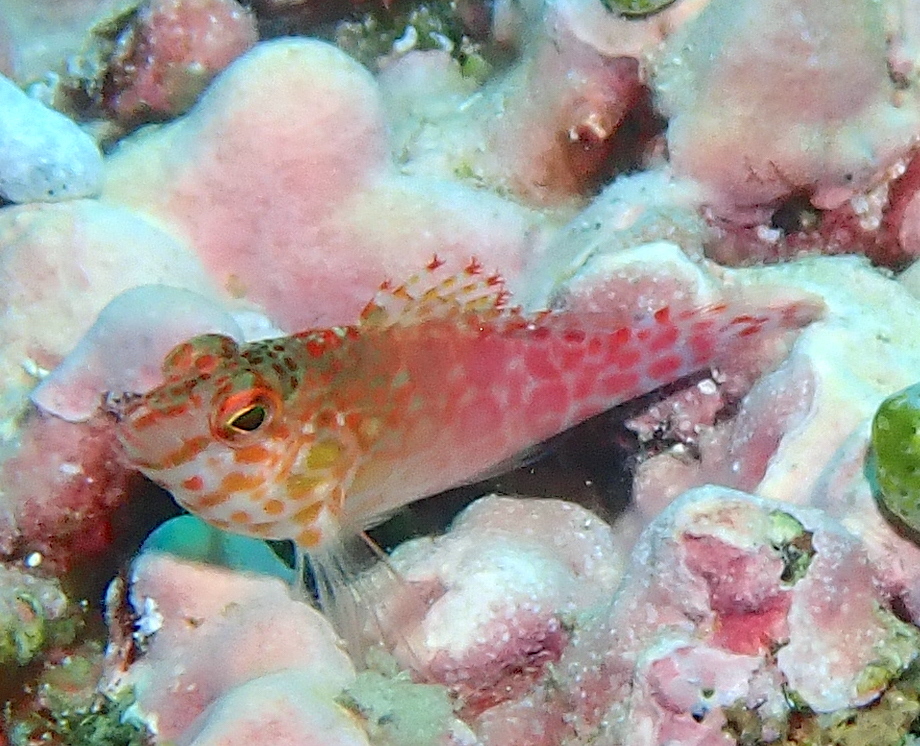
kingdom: Animalia
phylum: Chordata
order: Perciformes
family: Cirrhitidae
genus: Cirrhitichthys
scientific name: Cirrhitichthys oxycephalus
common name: Spotted hawkfish
